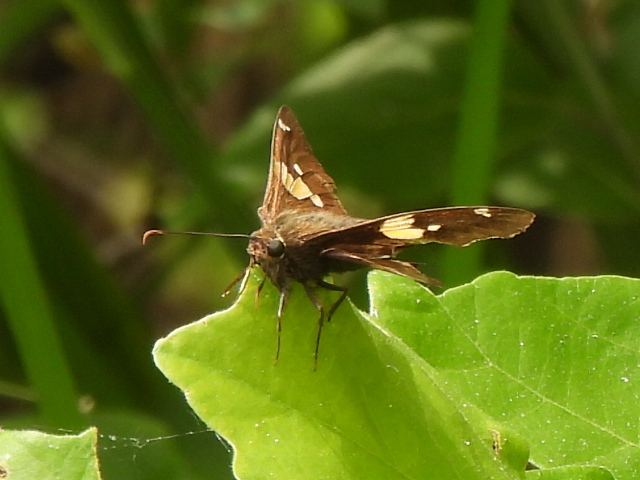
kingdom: Animalia
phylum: Arthropoda
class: Insecta
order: Lepidoptera
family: Hesperiidae
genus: Epargyreus
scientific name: Epargyreus clarus
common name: Silver-spotted skipper
